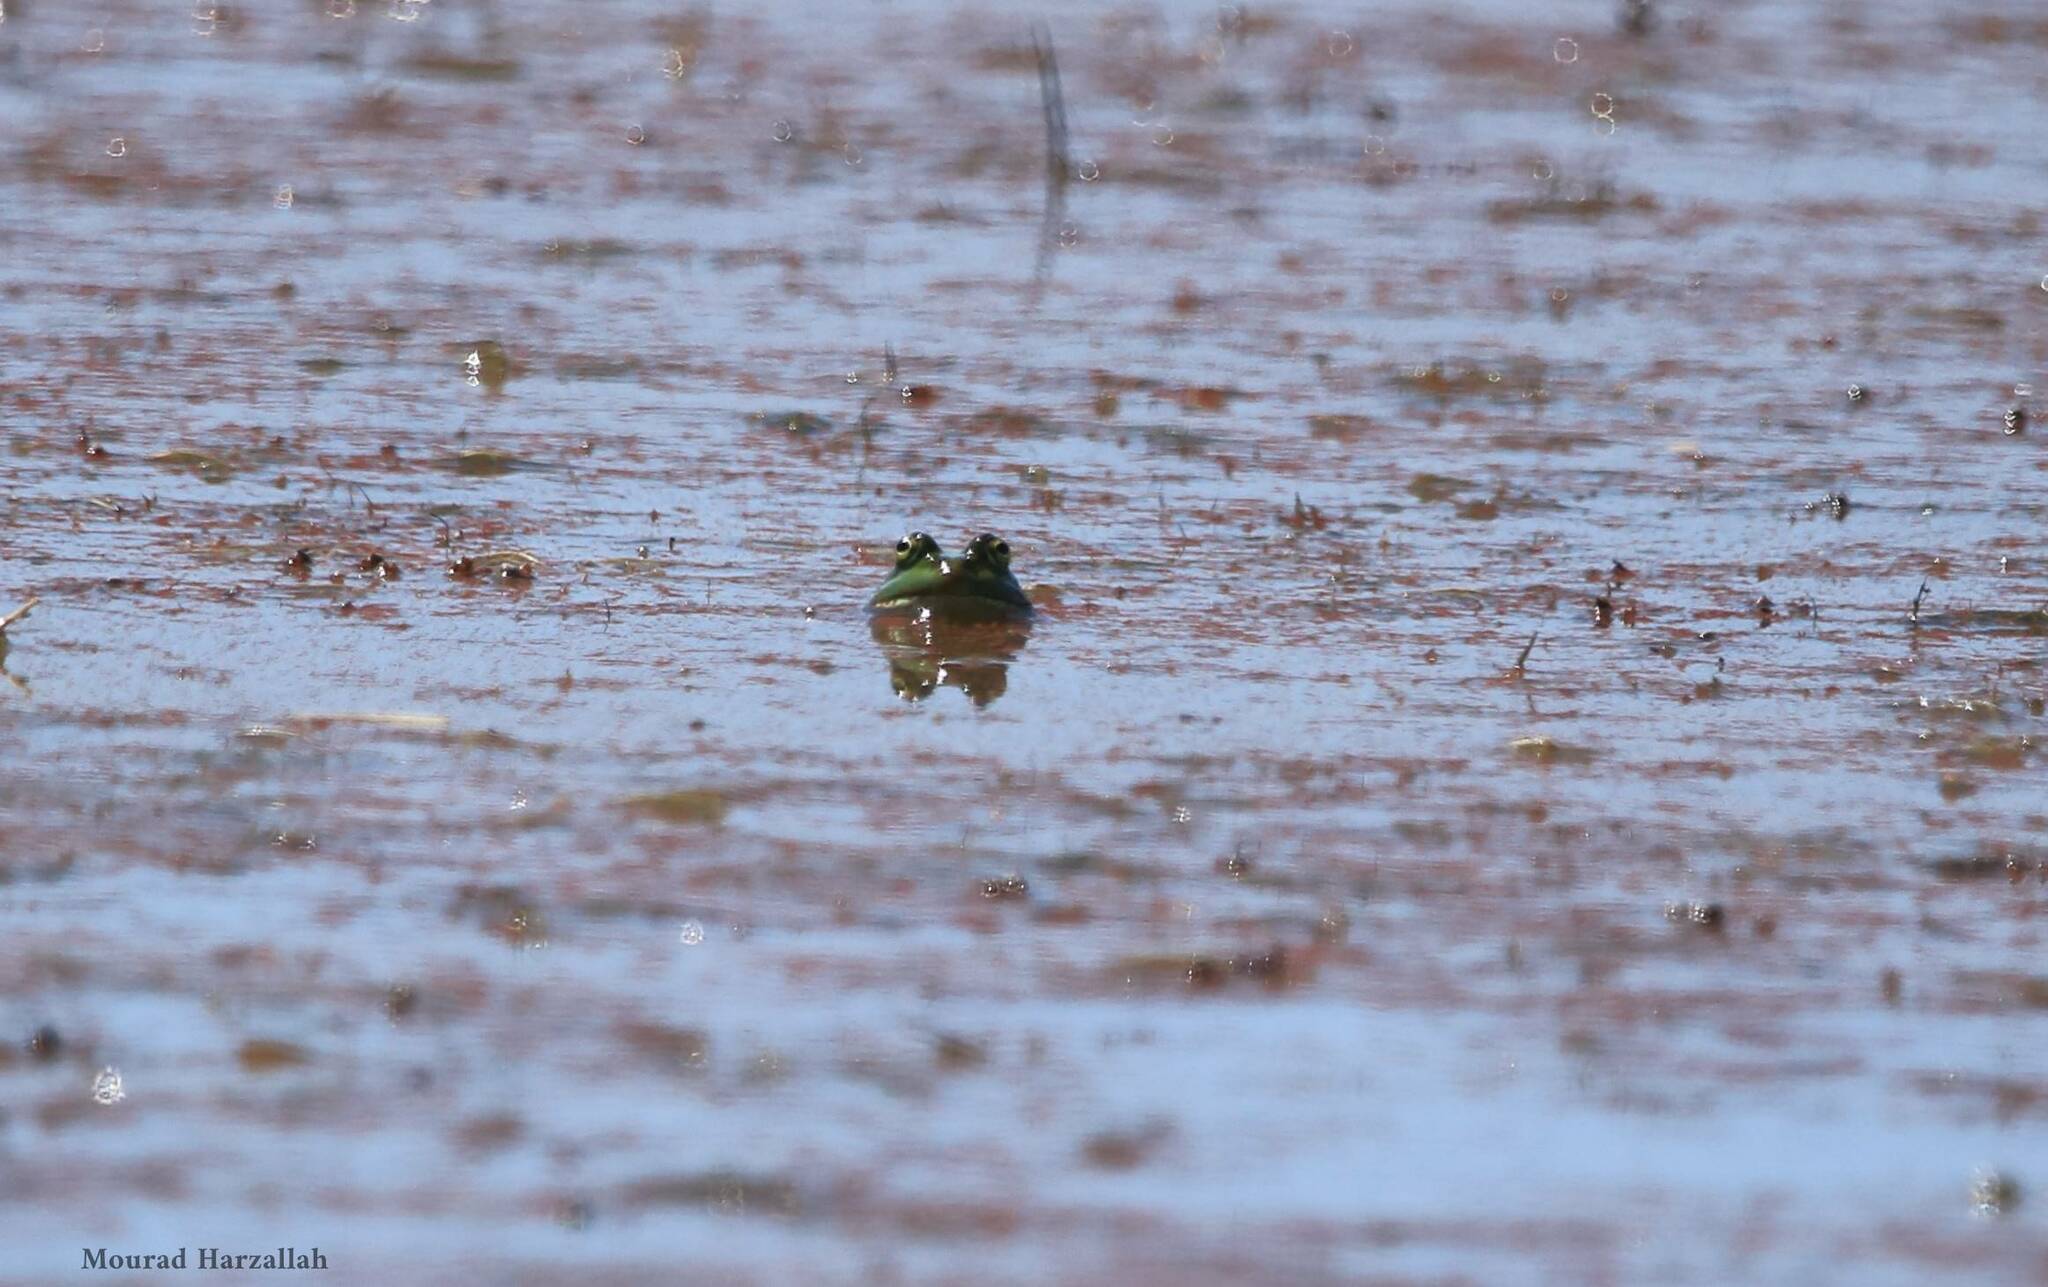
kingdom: Animalia
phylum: Chordata
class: Amphibia
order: Anura
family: Ranidae
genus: Pelophylax
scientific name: Pelophylax saharicus
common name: Sahara frog
